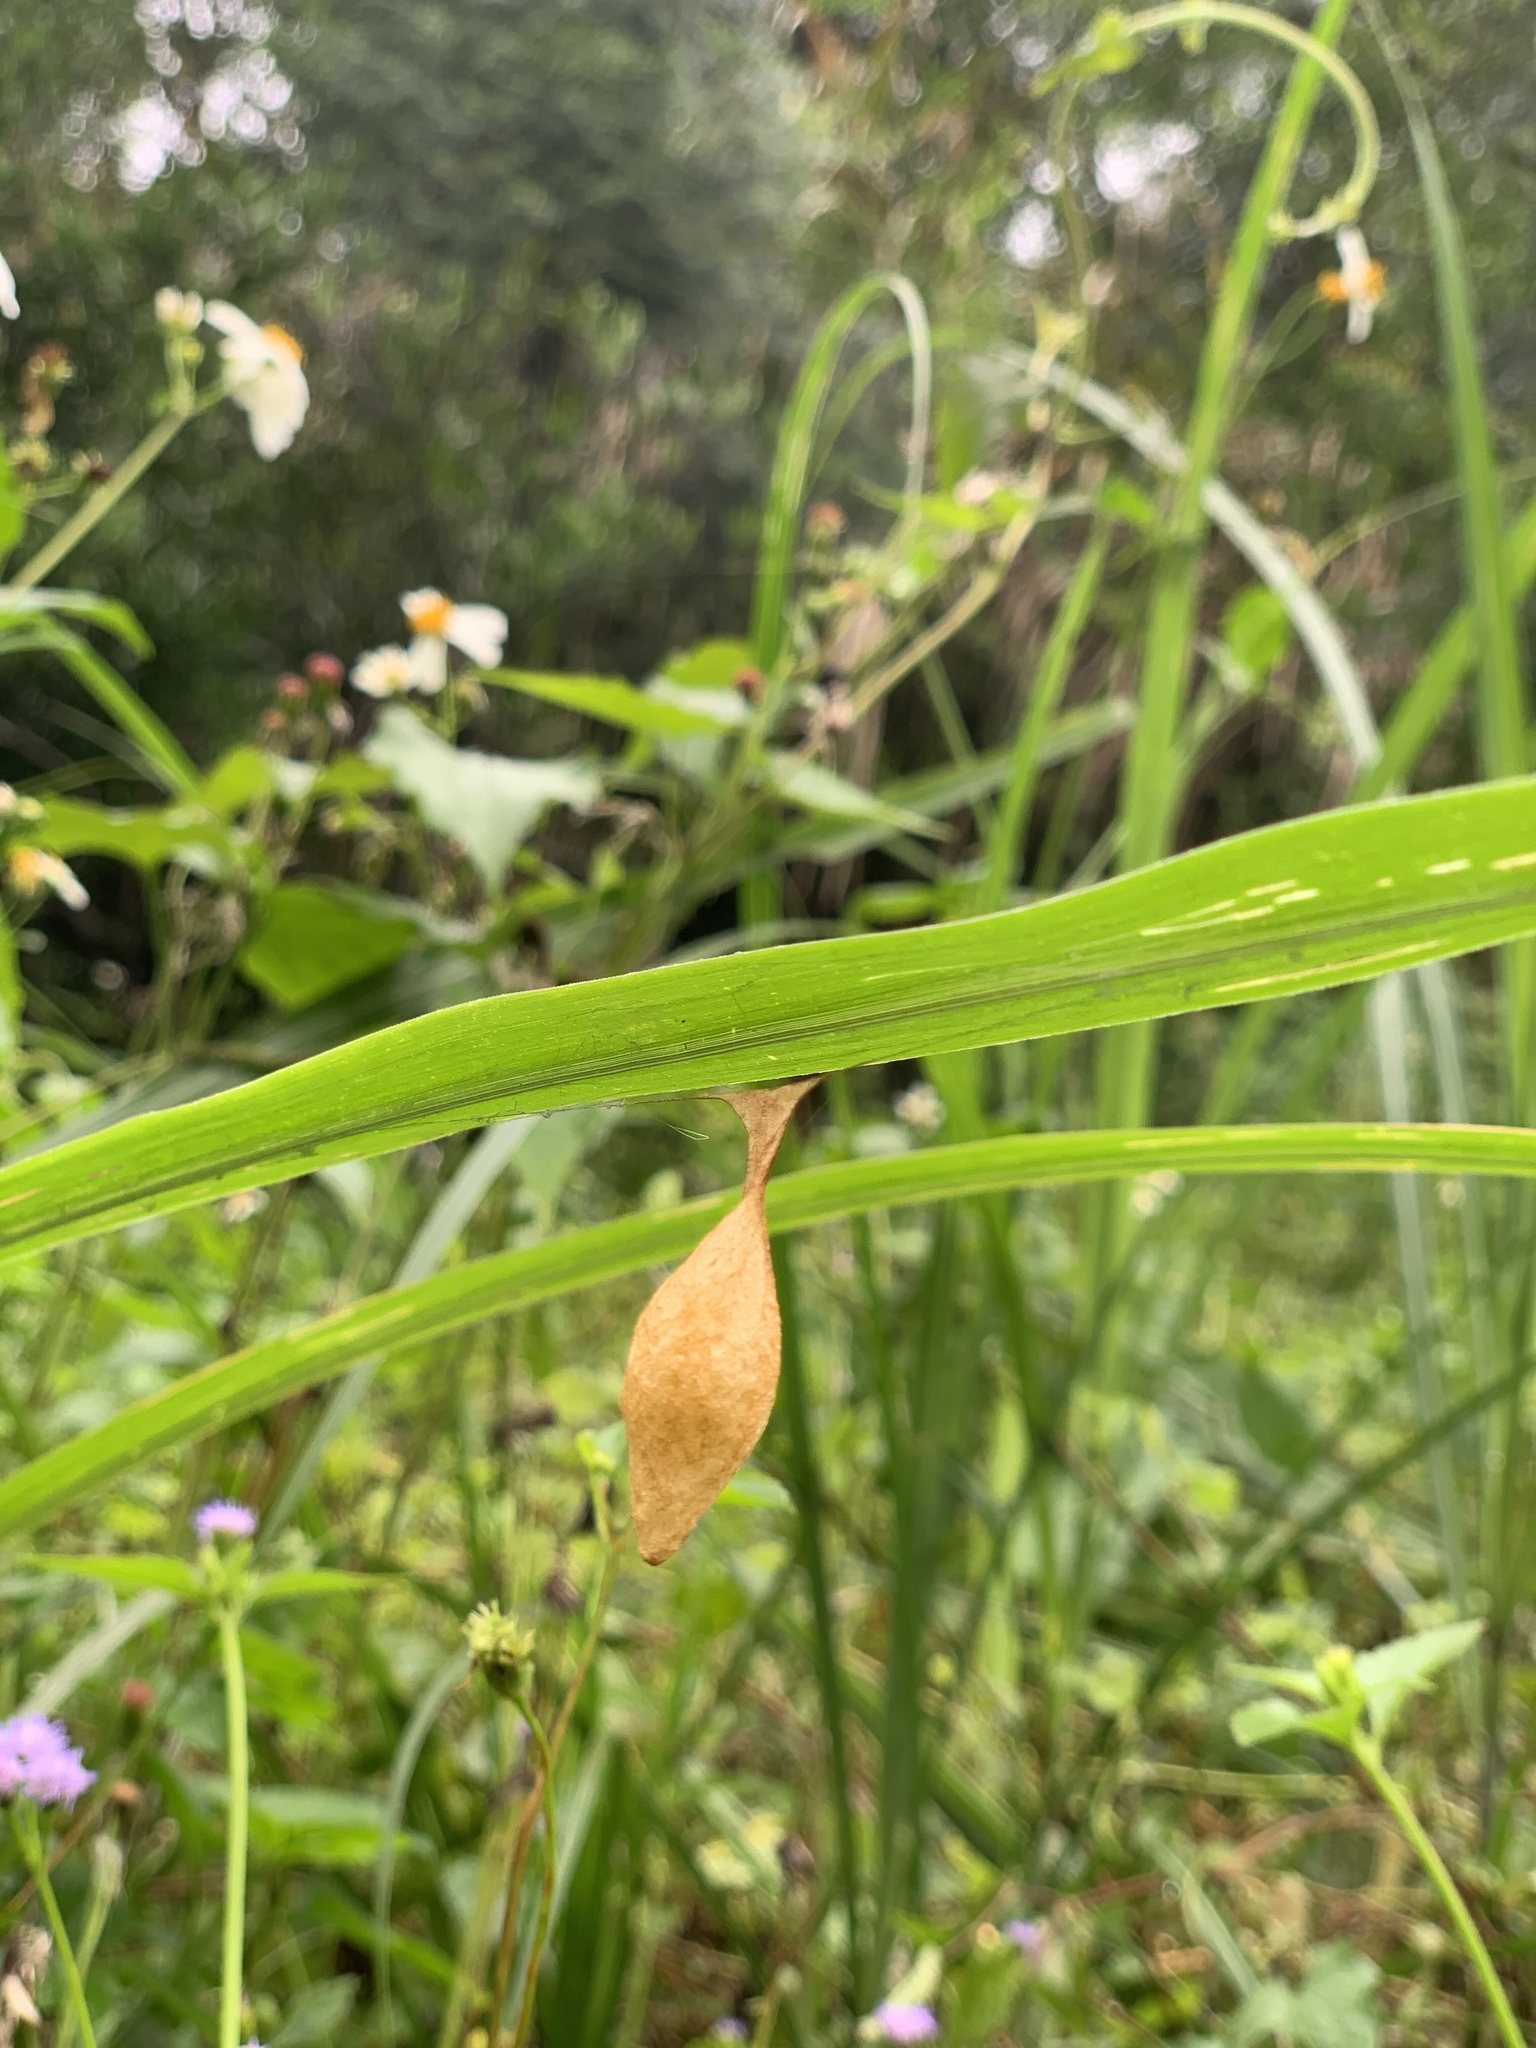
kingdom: Animalia
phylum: Arthropoda
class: Arachnida
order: Araneae
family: Araneidae
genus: Cyrtarachne
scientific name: Cyrtarachne inaequalis
